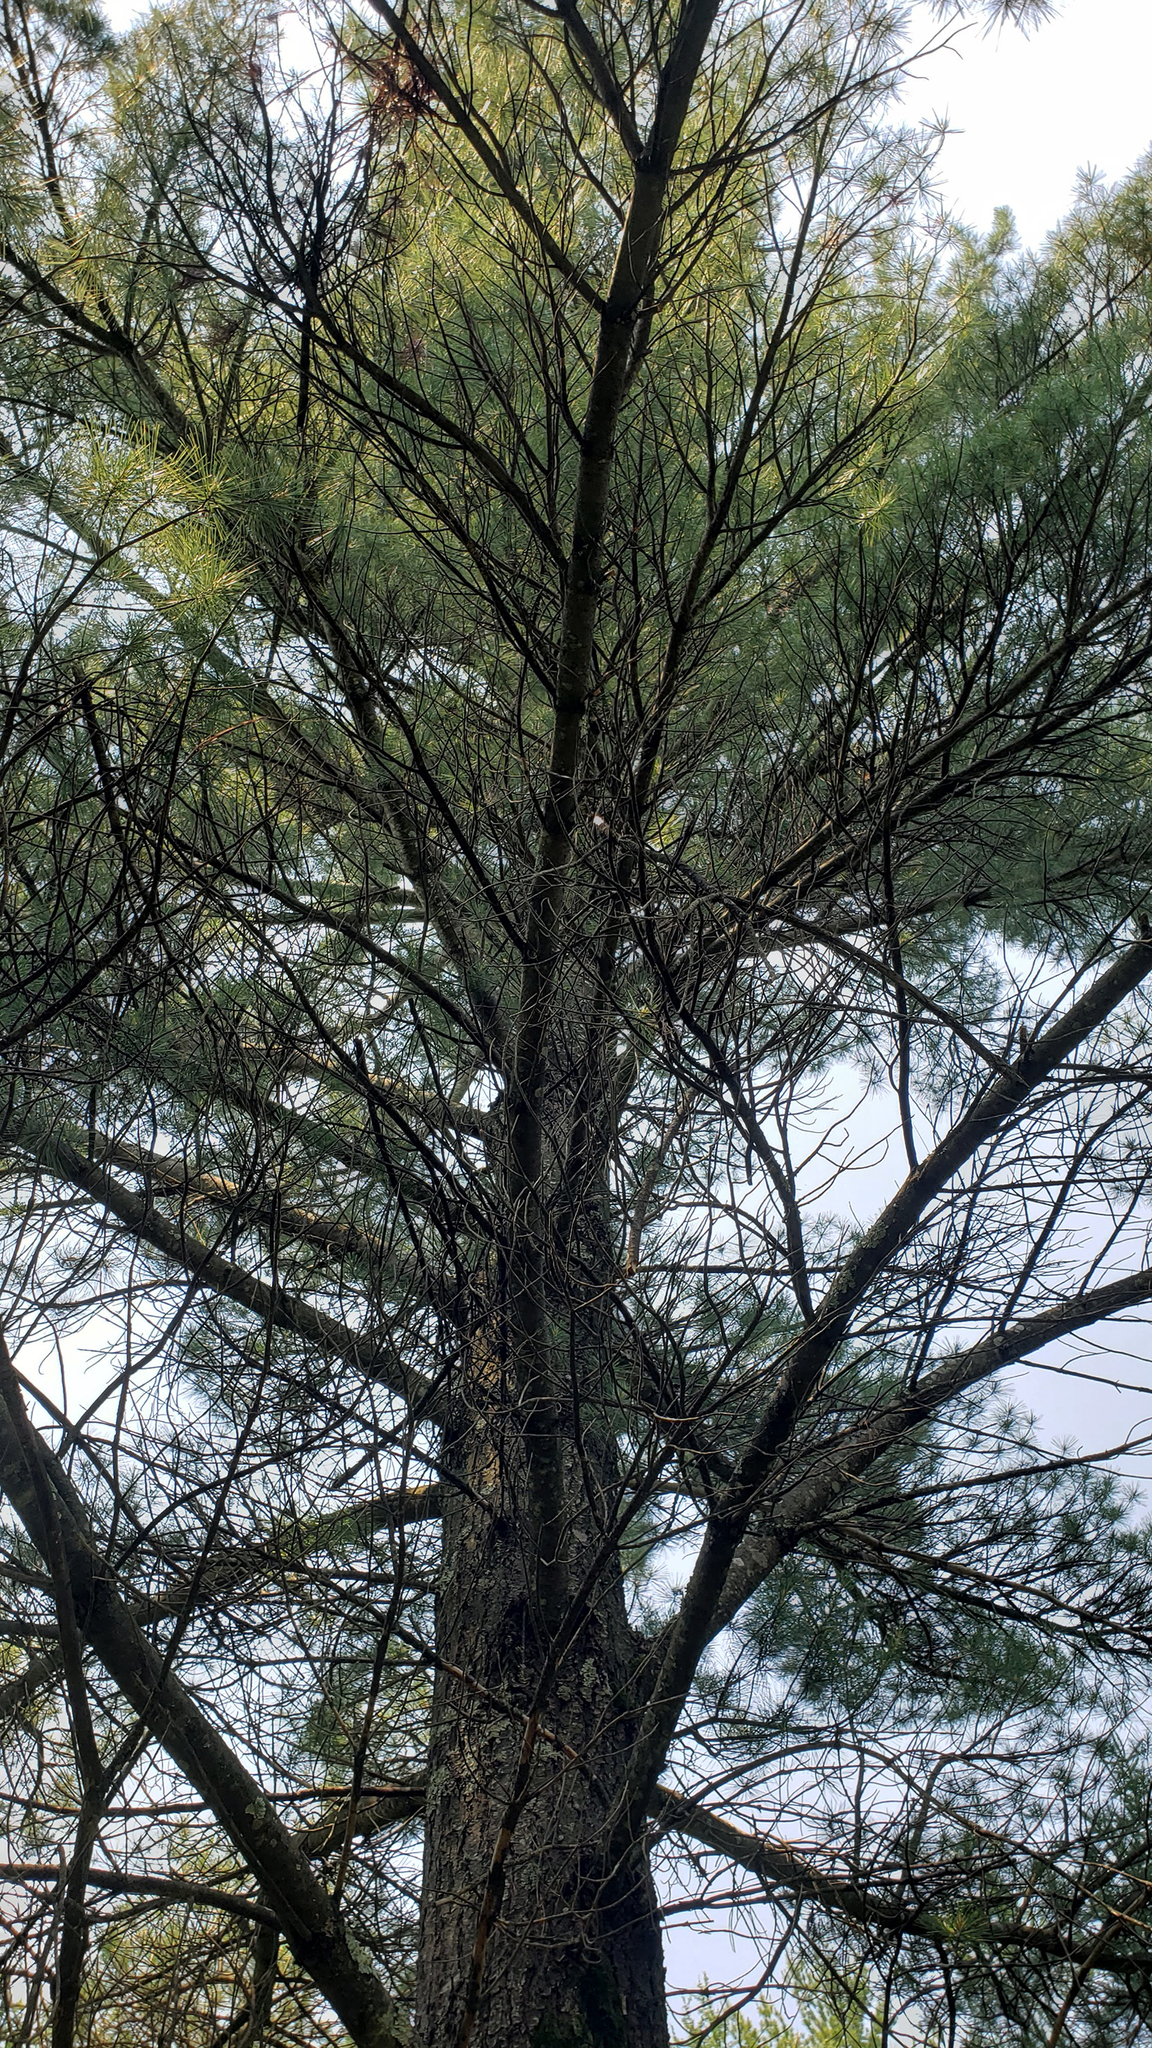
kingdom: Plantae
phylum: Tracheophyta
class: Pinopsida
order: Pinales
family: Pinaceae
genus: Pinus
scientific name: Pinus strobus
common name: Weymouth pine
